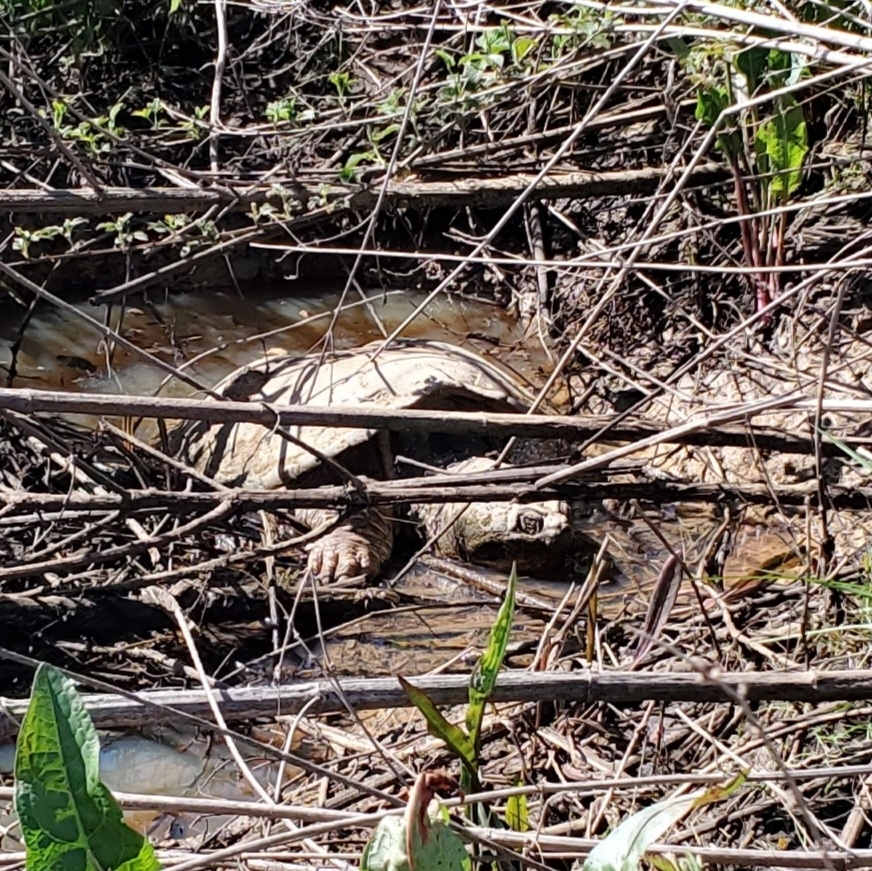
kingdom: Animalia
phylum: Chordata
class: Testudines
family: Chelydridae
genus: Chelydra
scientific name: Chelydra serpentina
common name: Common snapping turtle
